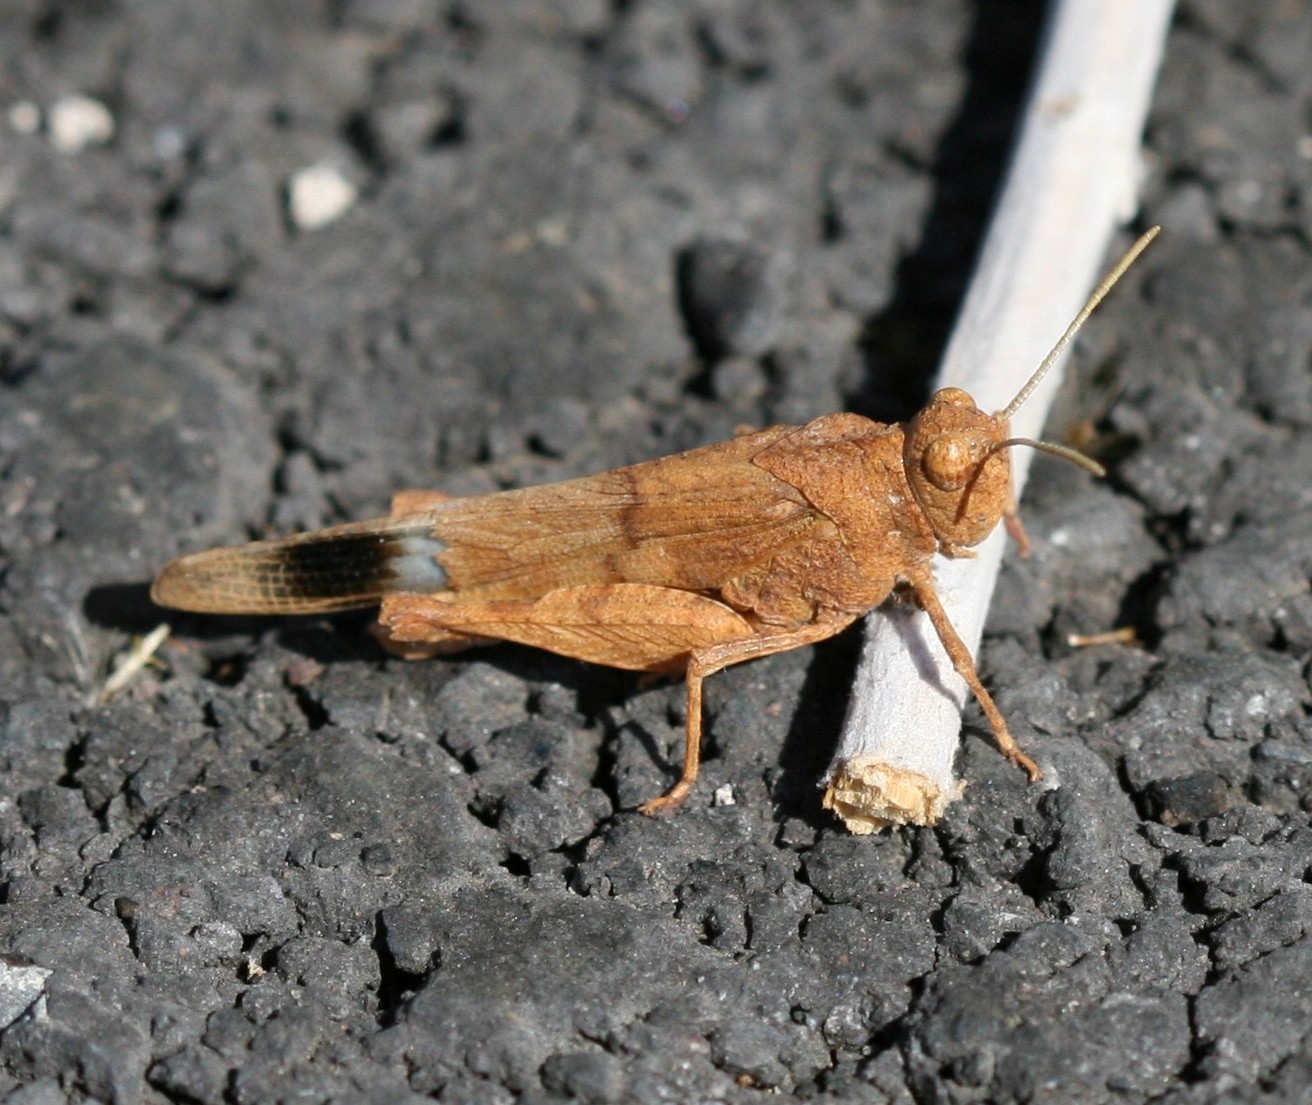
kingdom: Animalia
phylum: Arthropoda
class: Insecta
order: Orthoptera
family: Acrididae
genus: Oedipoda
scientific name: Oedipoda canariensis
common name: Canarian band-winged grasshopper
